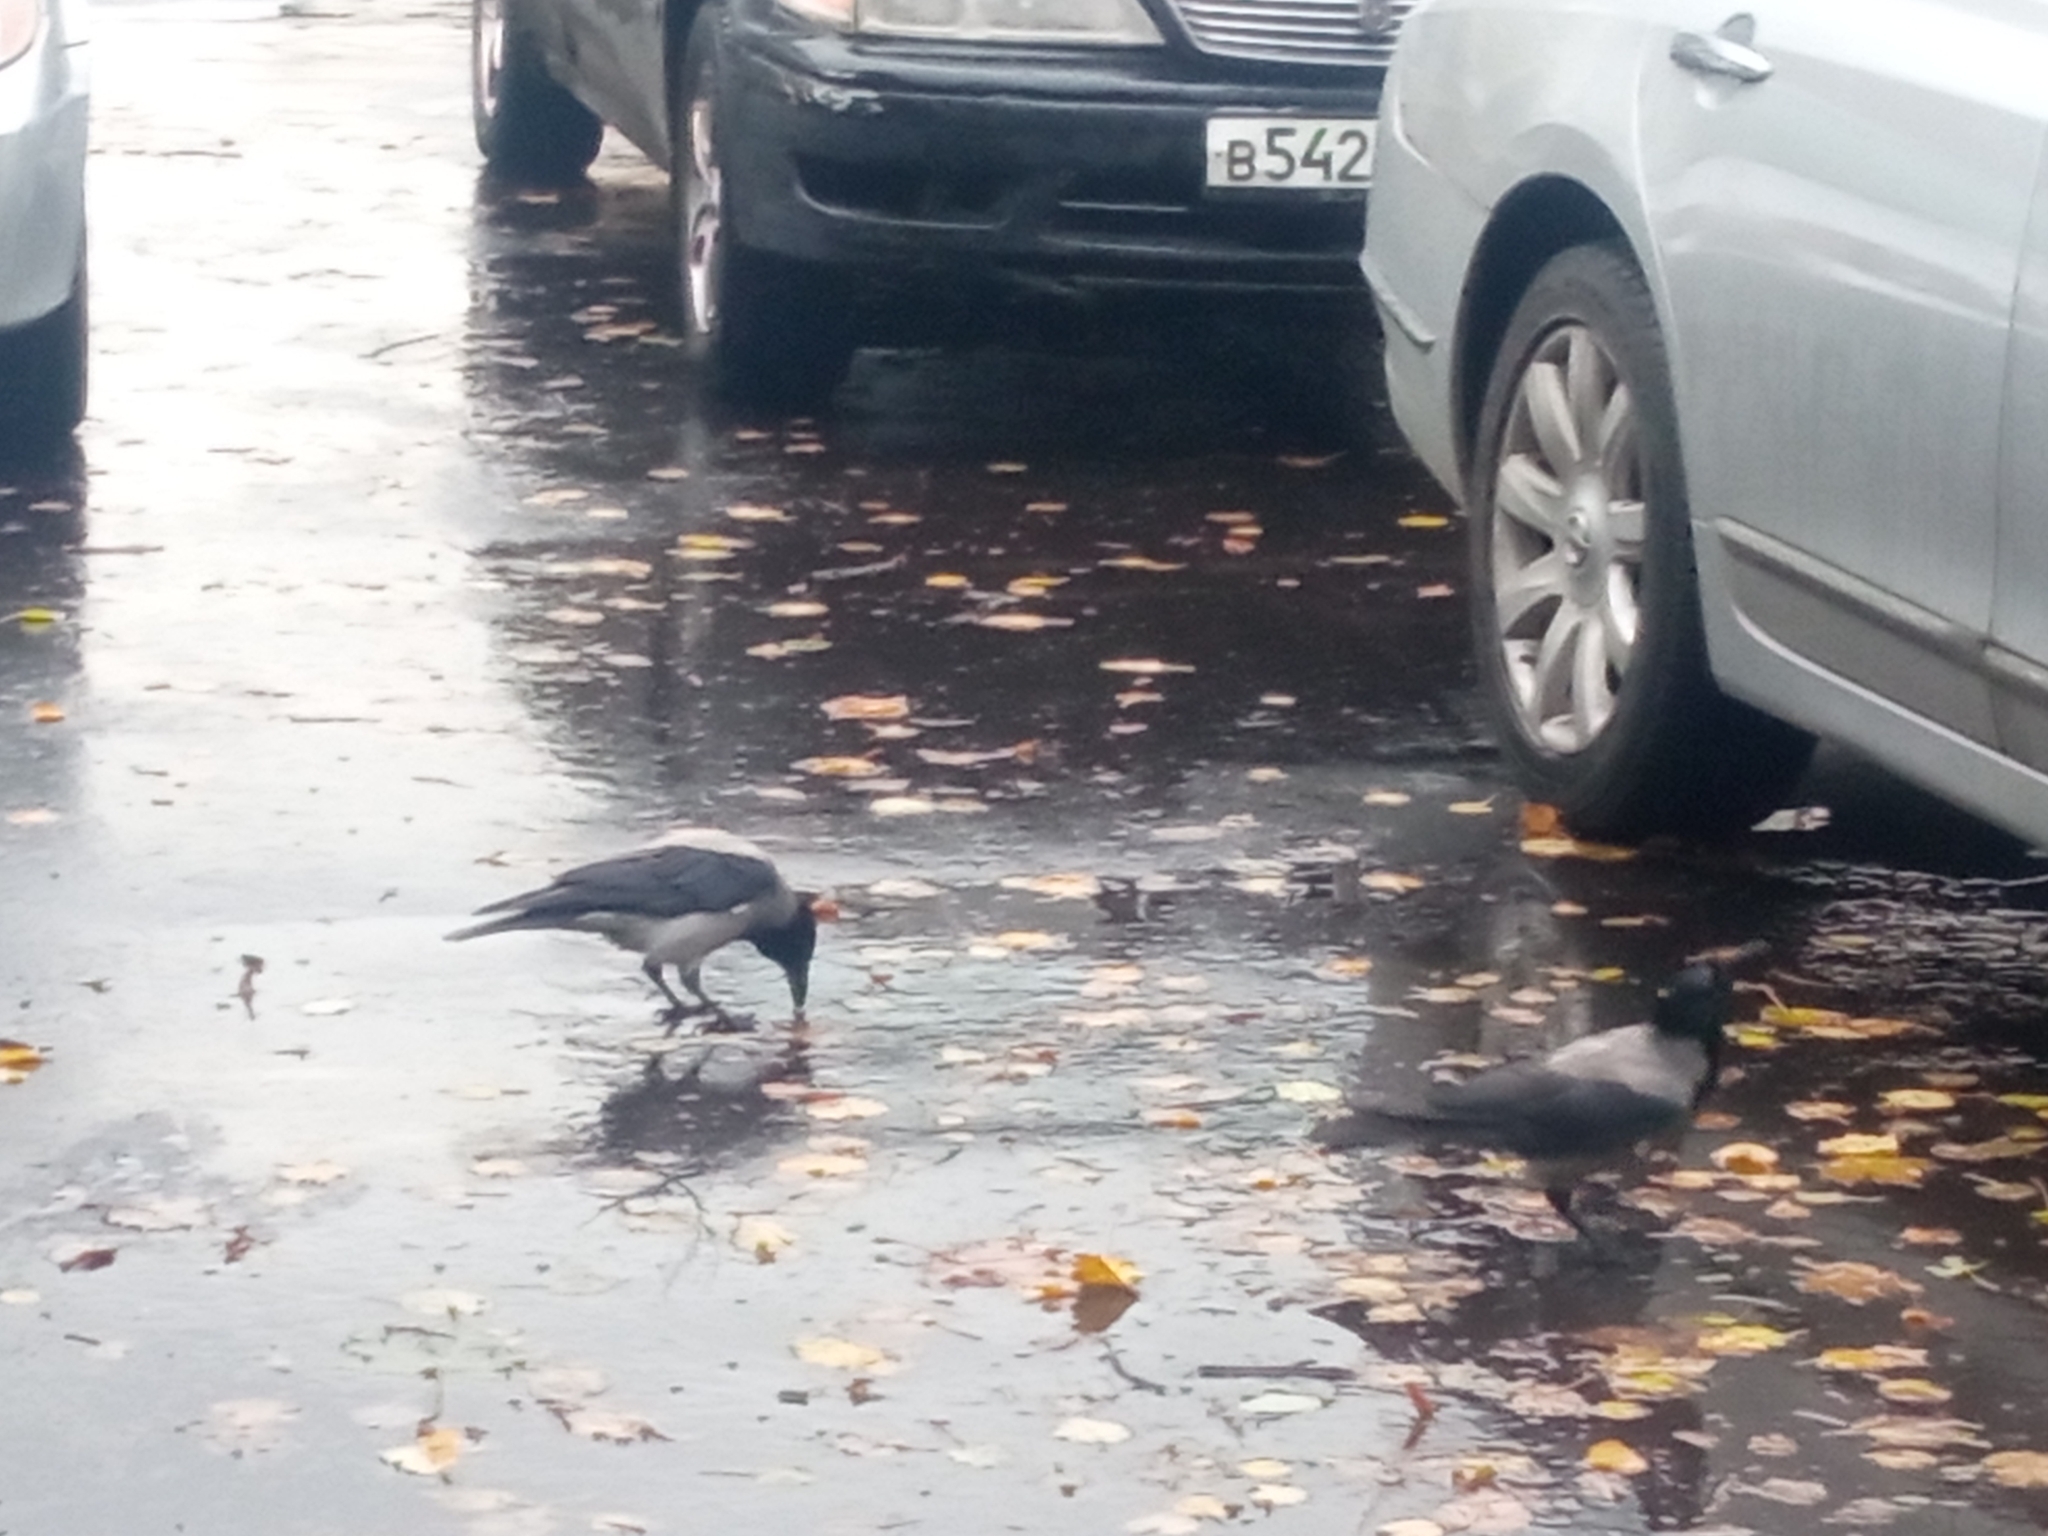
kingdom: Animalia
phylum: Chordata
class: Aves
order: Passeriformes
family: Corvidae
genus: Corvus
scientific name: Corvus cornix
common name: Hooded crow
